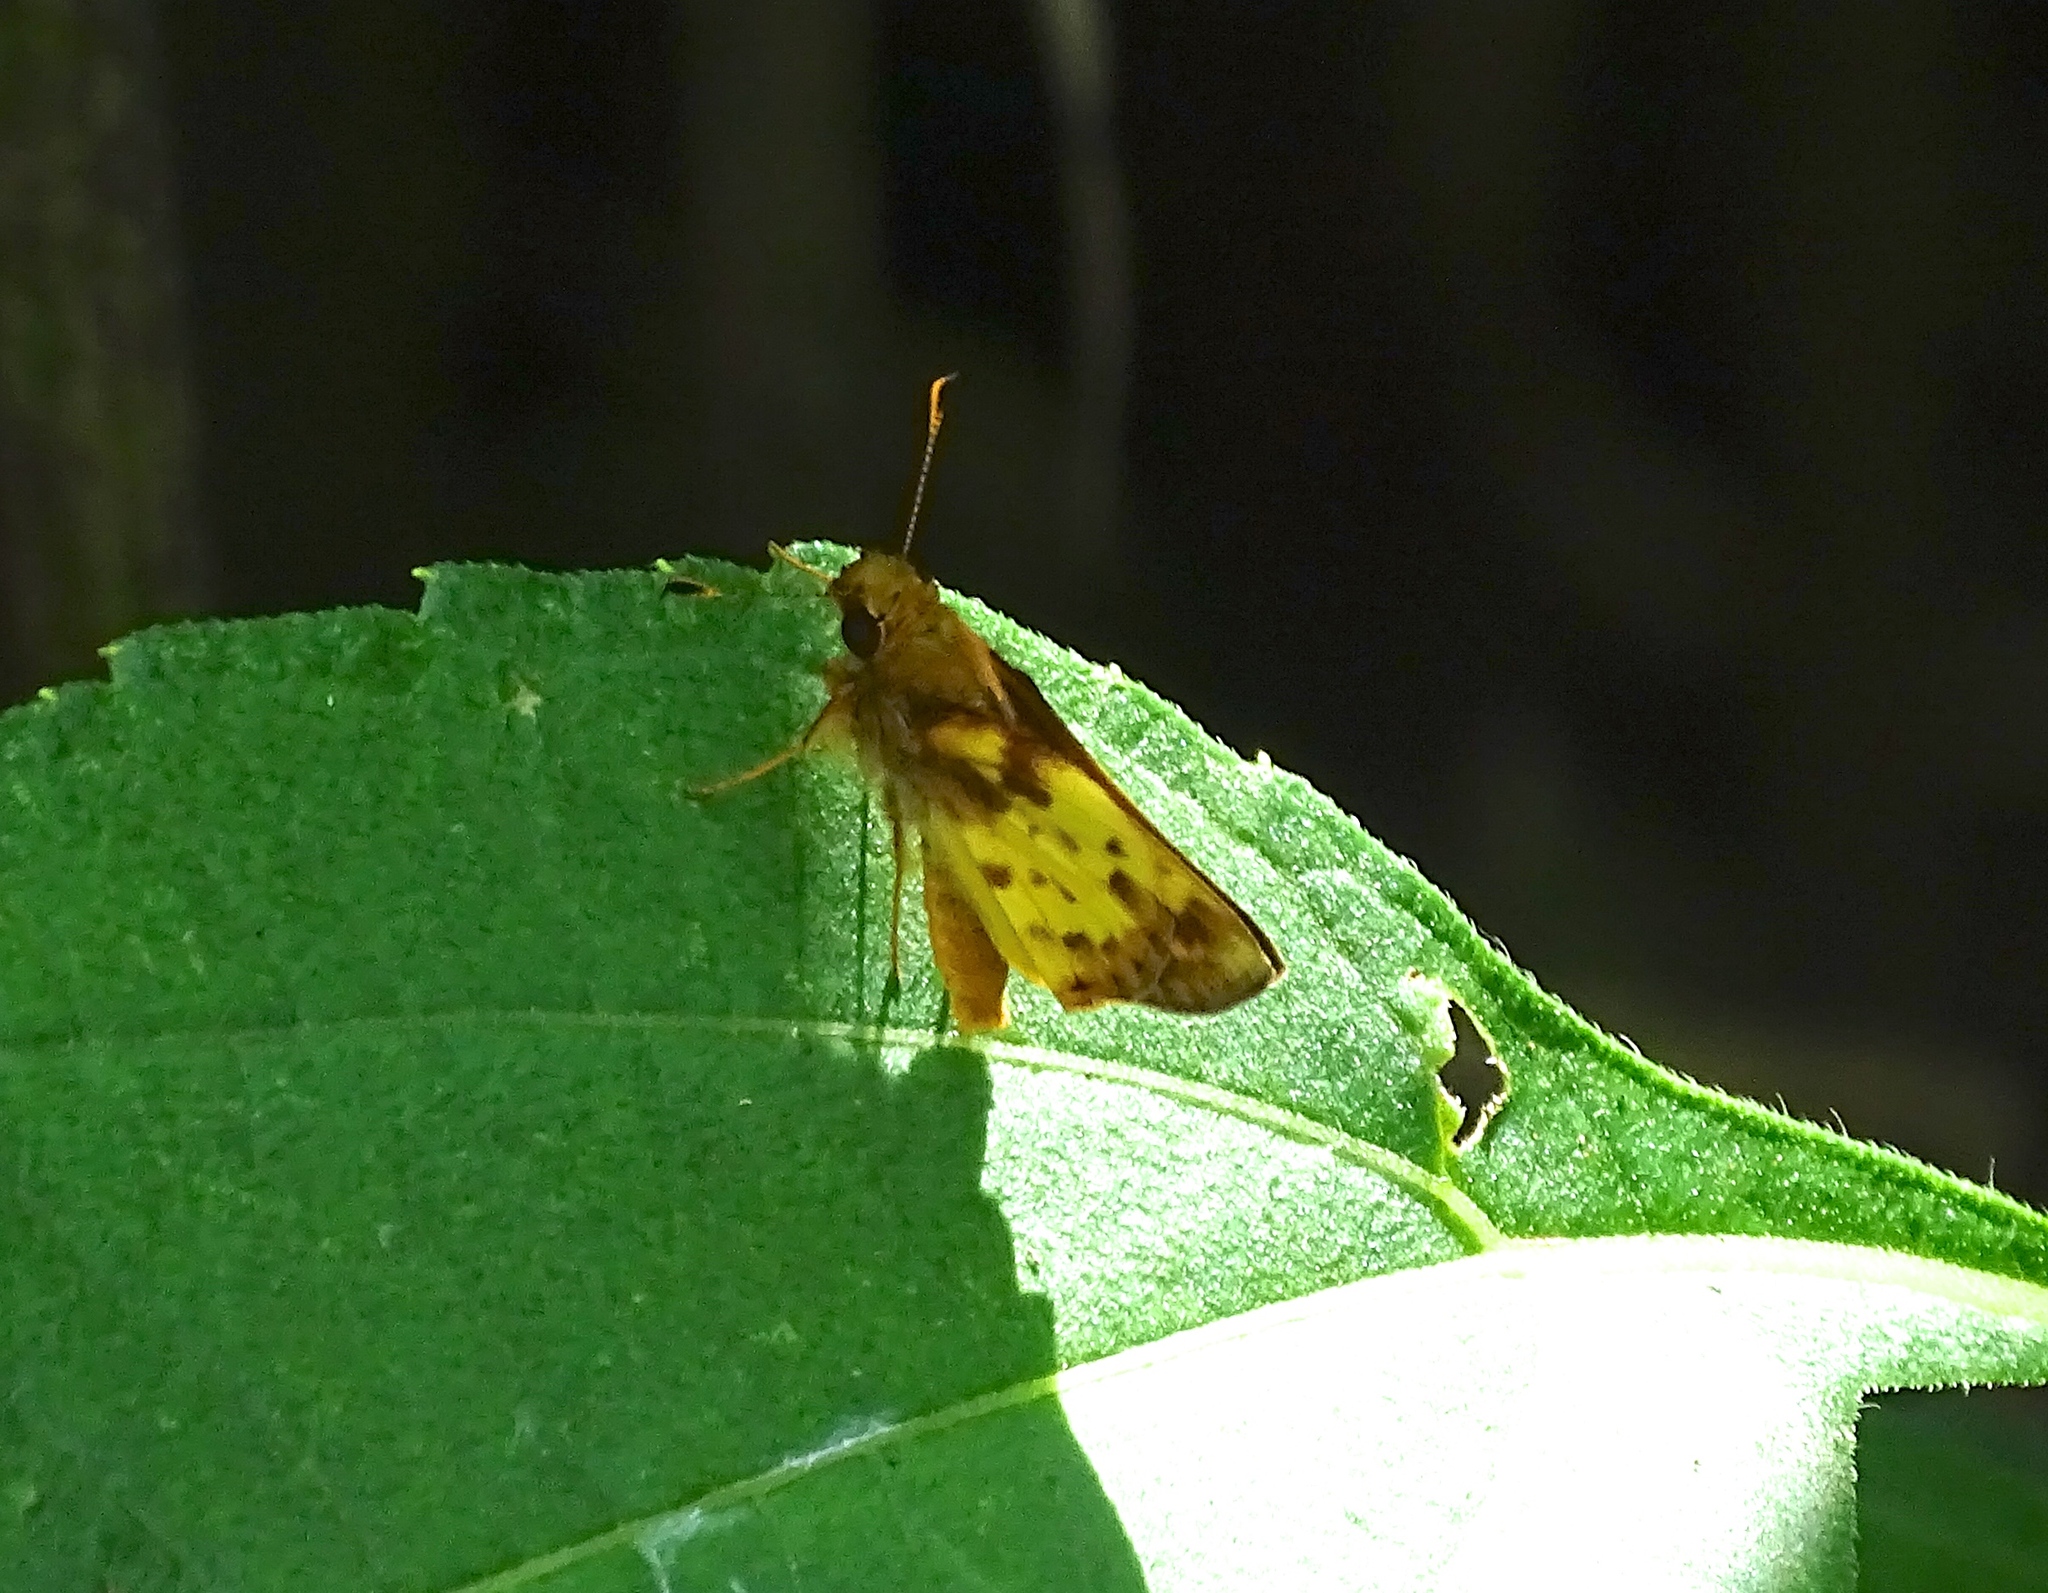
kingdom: Animalia
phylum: Arthropoda
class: Insecta
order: Lepidoptera
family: Hesperiidae
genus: Lon
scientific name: Lon zabulon
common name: Zabulon skipper
